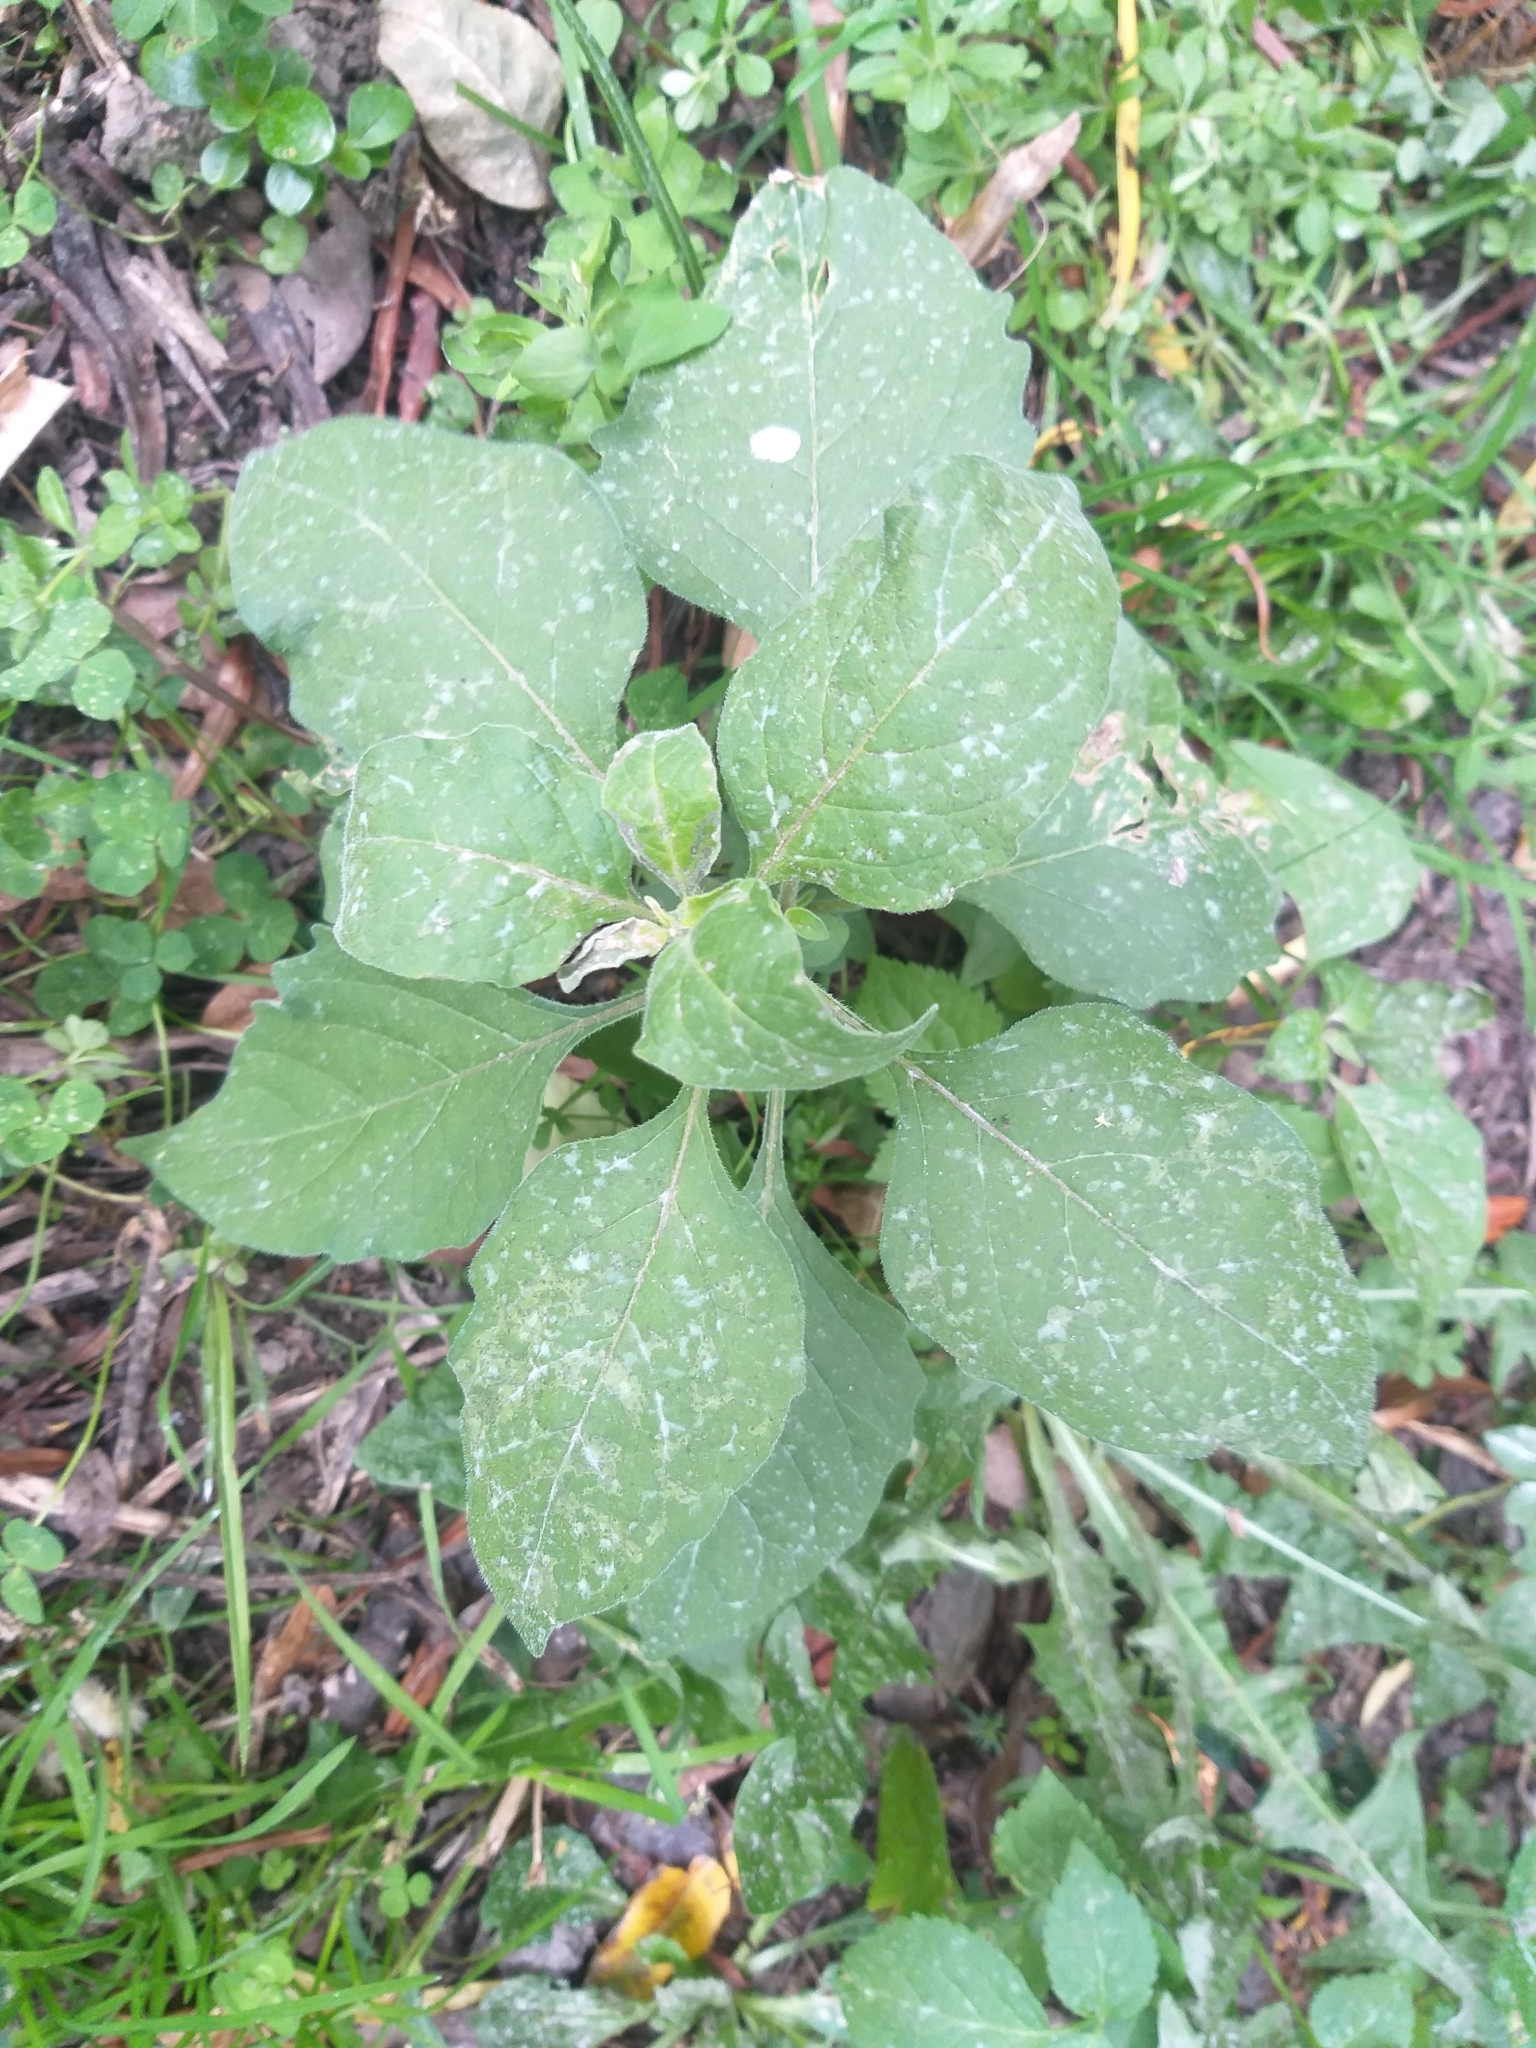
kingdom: Plantae
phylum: Tracheophyta
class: Magnoliopsida
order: Solanales
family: Solanaceae
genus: Solanum
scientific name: Solanum nigrum
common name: Black nightshade
